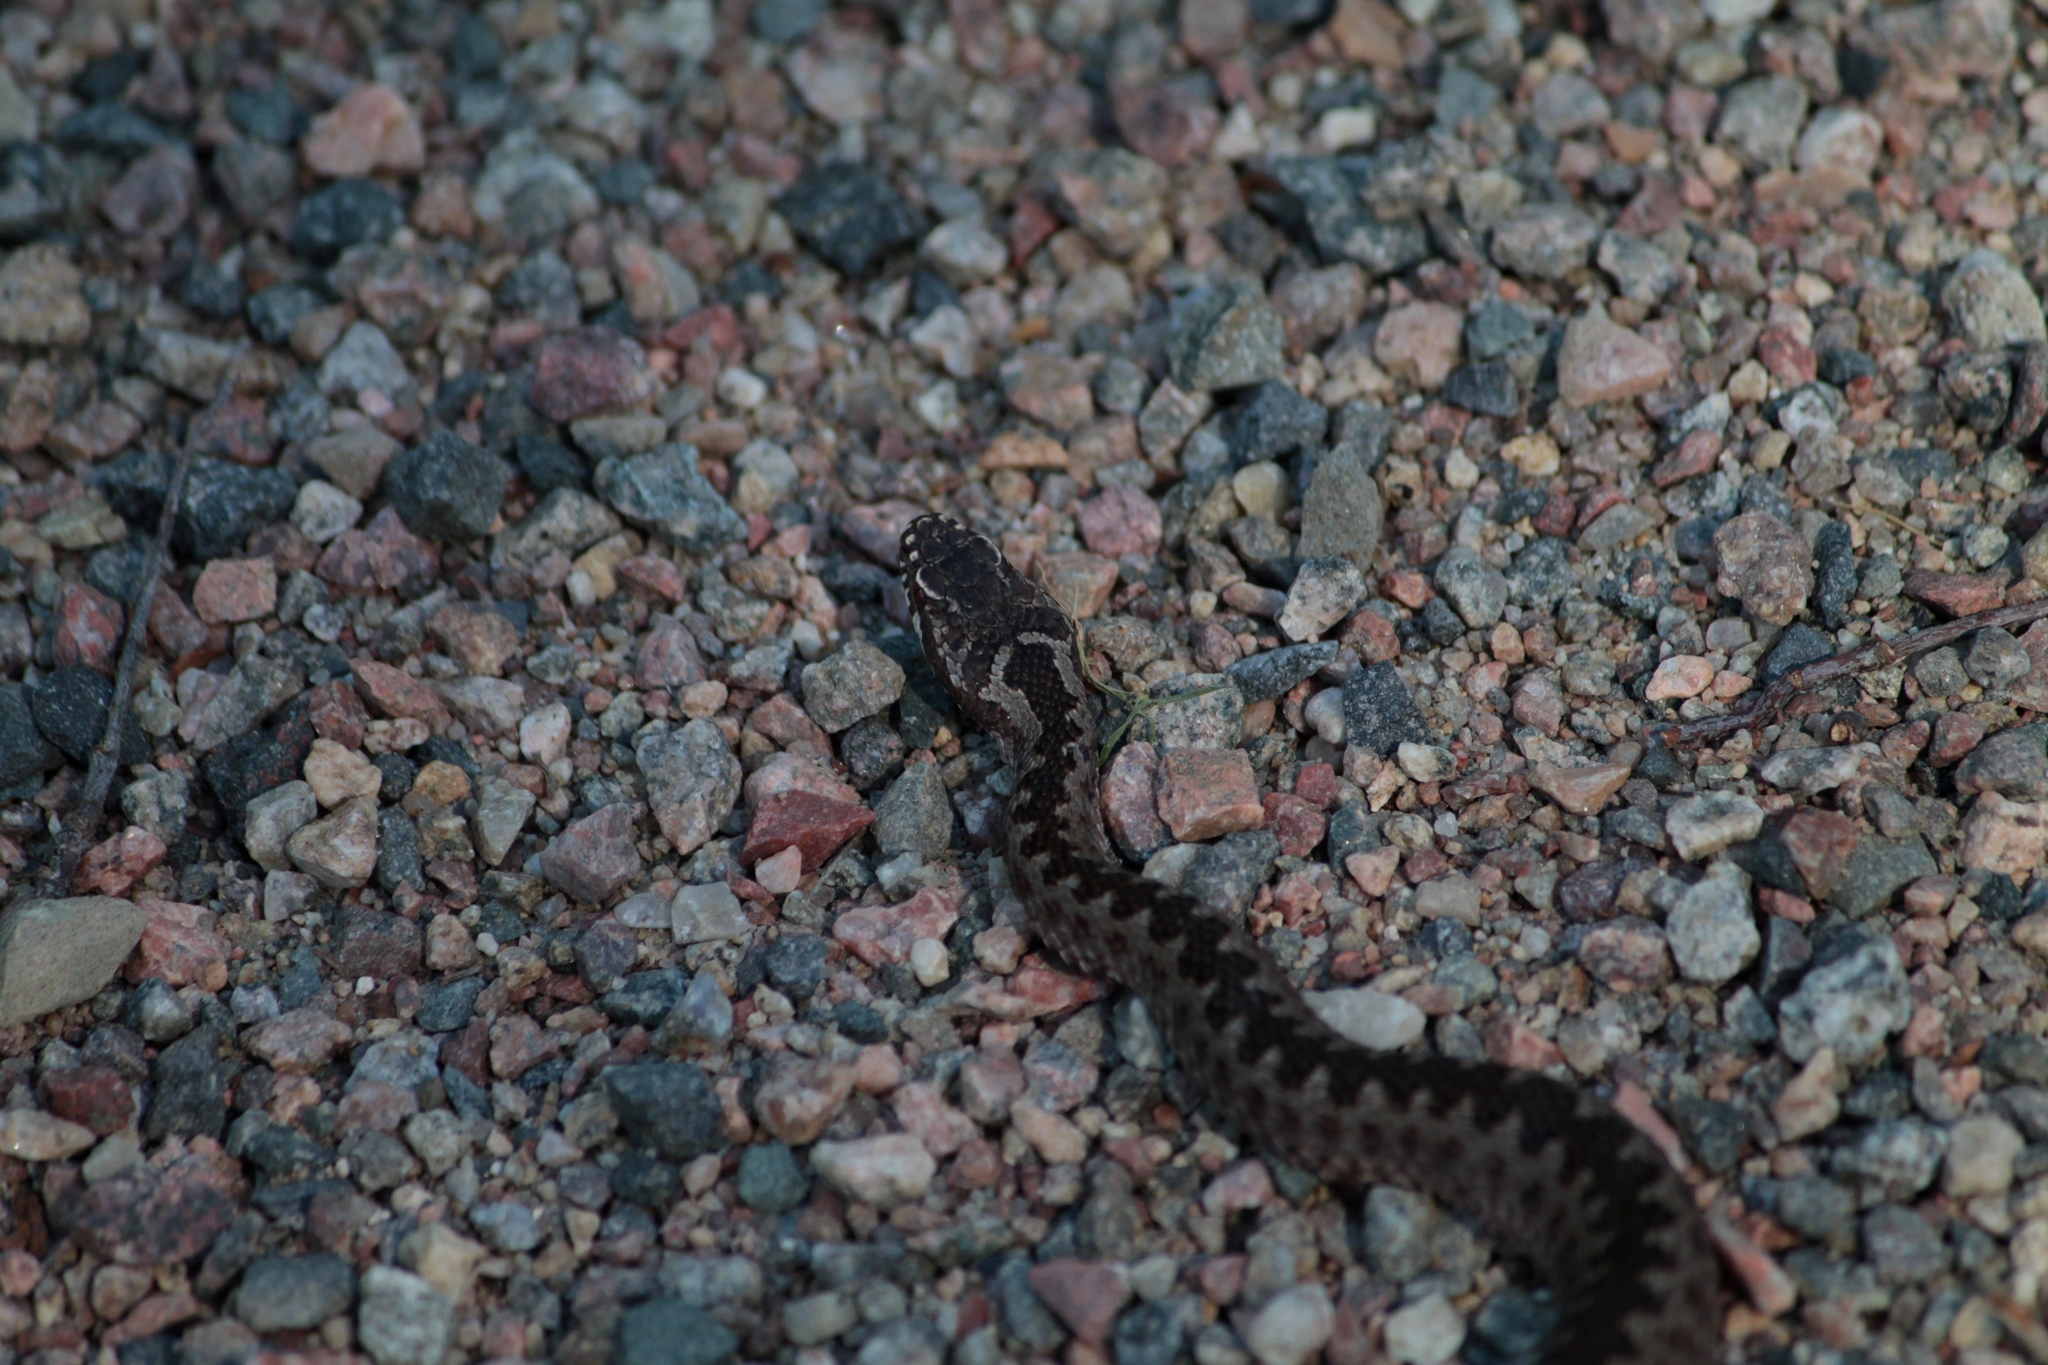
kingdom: Animalia
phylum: Chordata
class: Squamata
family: Viperidae
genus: Vipera
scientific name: Vipera berus
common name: Adder
